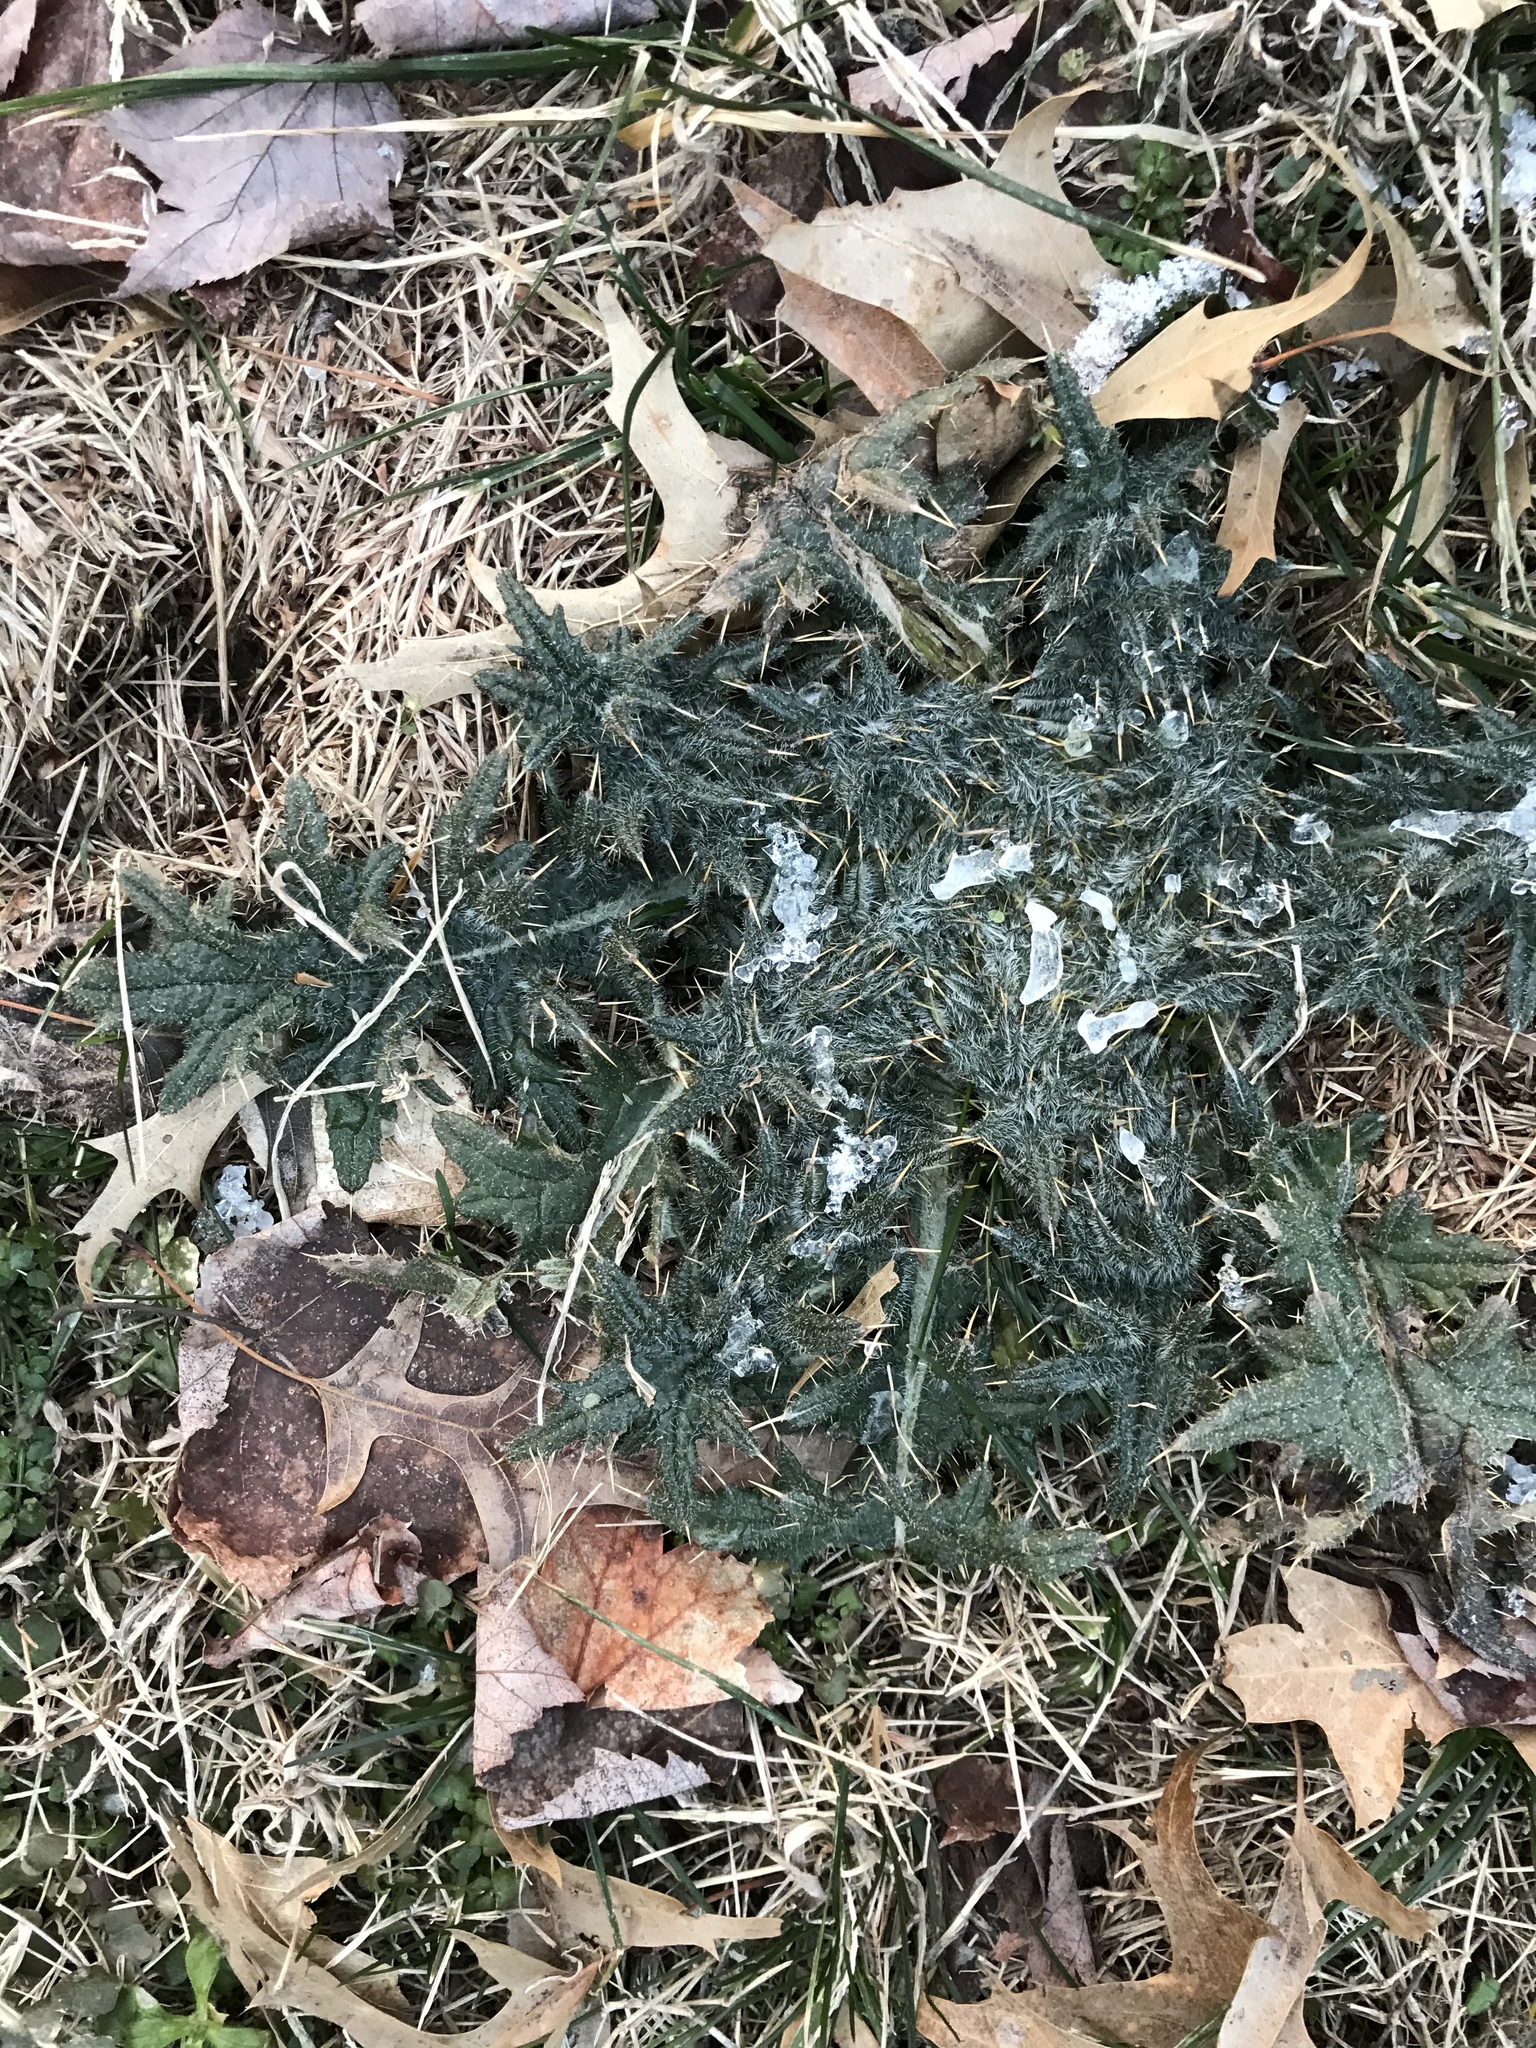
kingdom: Plantae
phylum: Tracheophyta
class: Magnoliopsida
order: Asterales
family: Asteraceae
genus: Cirsium
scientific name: Cirsium vulgare
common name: Bull thistle
